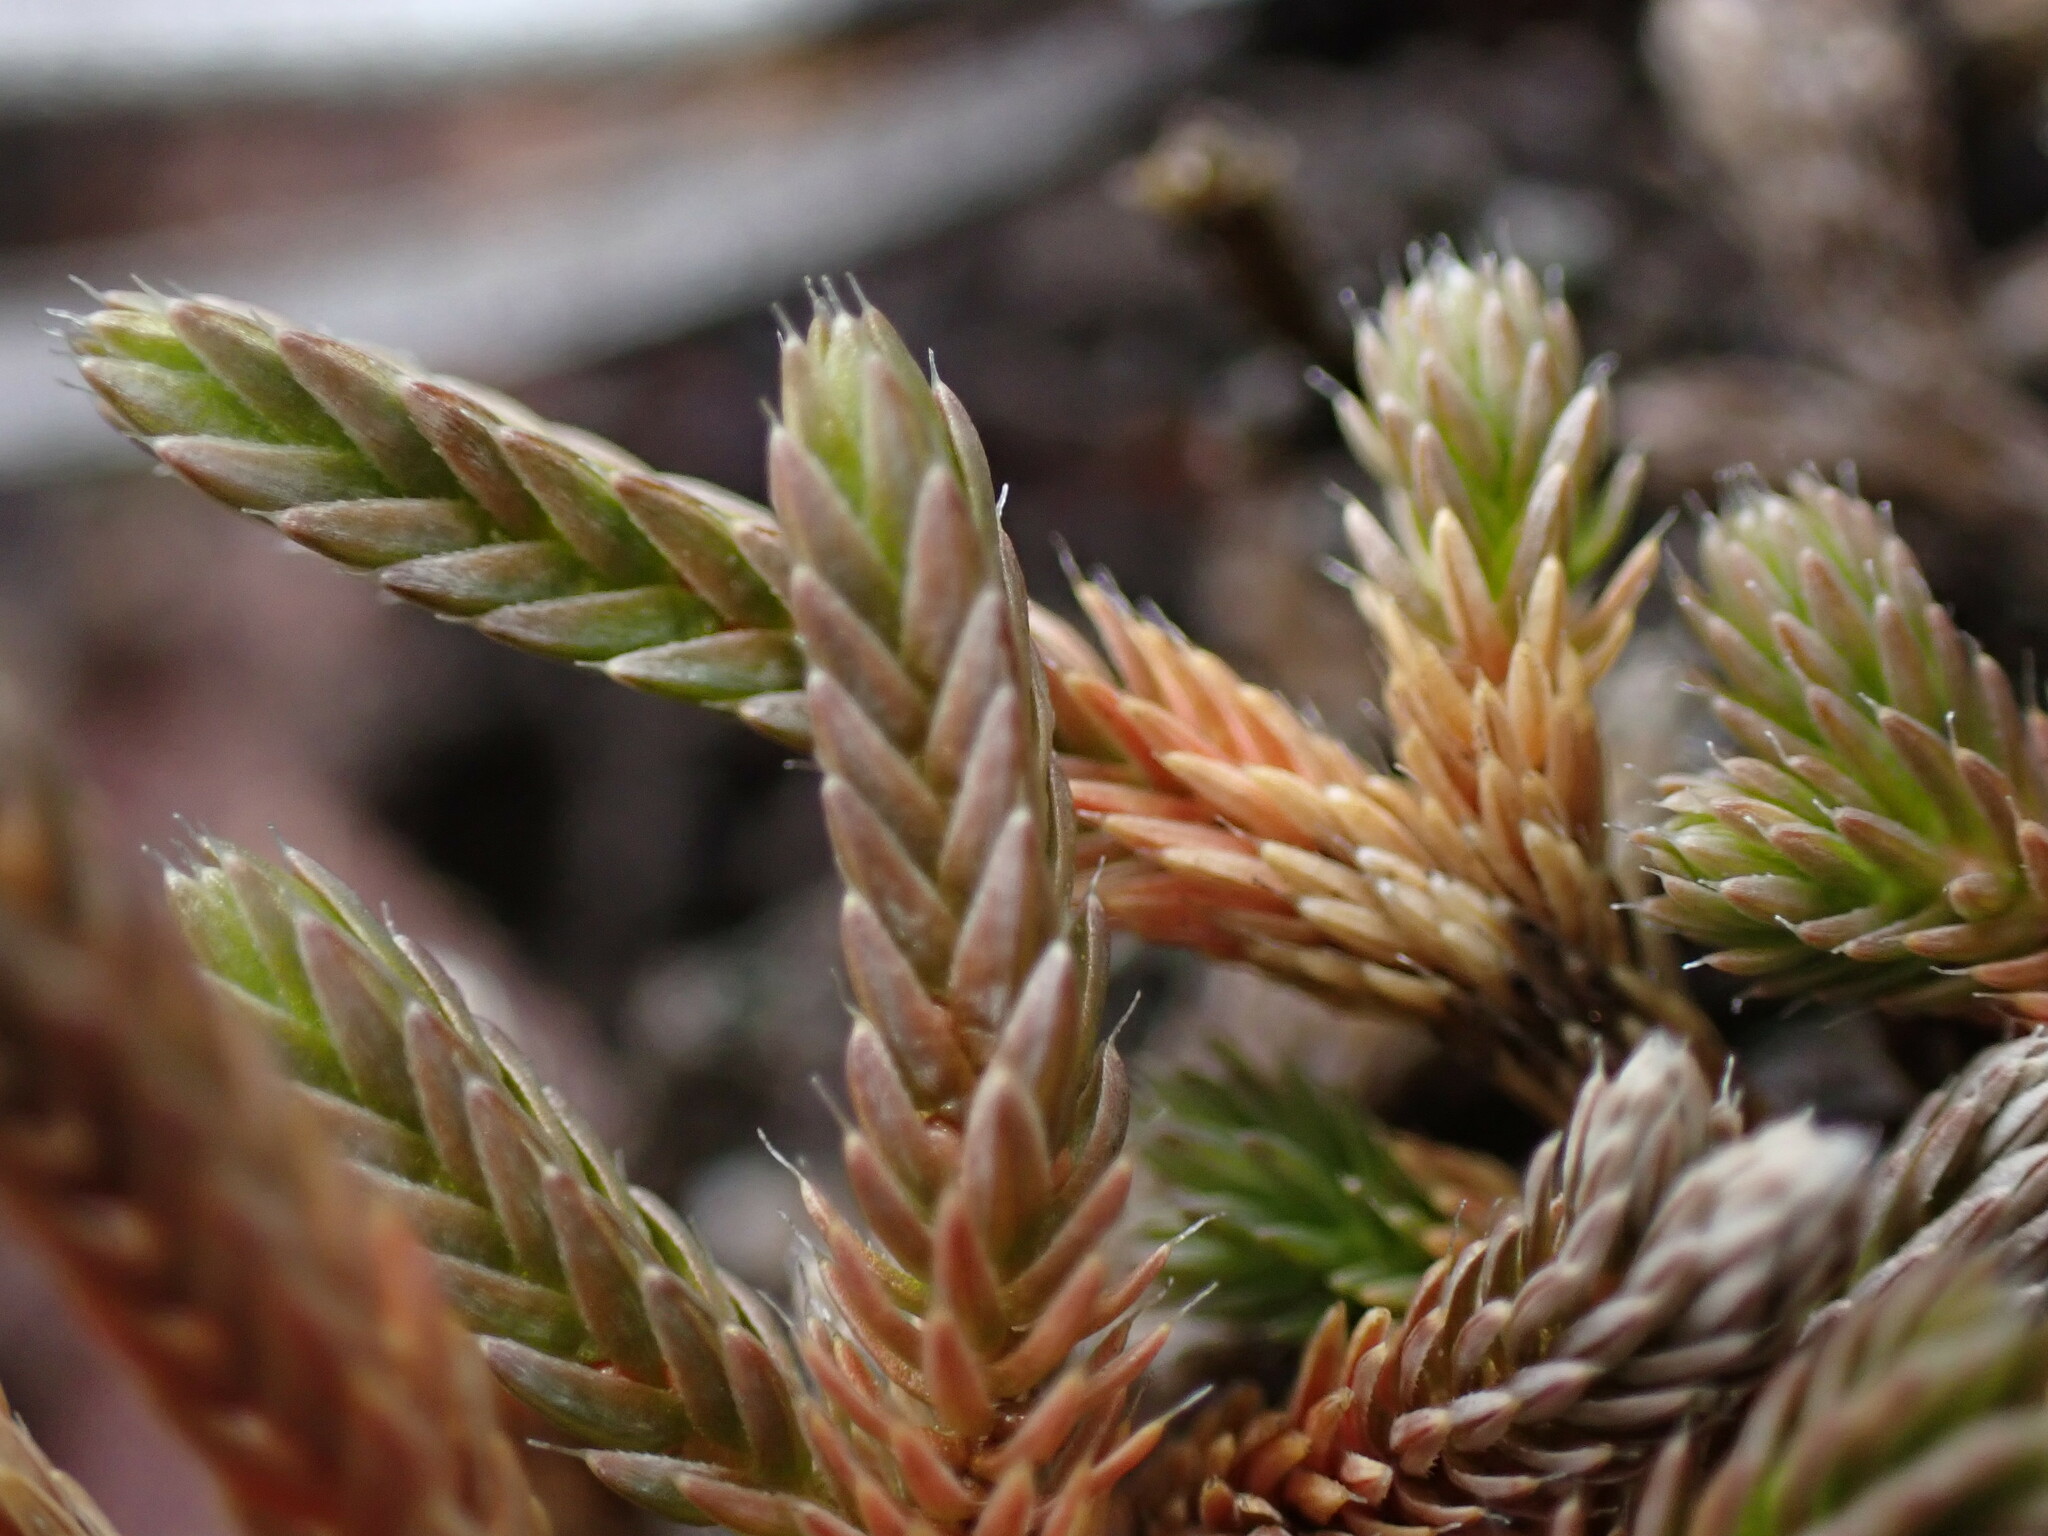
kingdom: Plantae
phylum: Tracheophyta
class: Lycopodiopsida
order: Selaginellales
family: Selaginellaceae
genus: Selaginella
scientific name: Selaginella wallacei
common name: Wallace's selaginella
